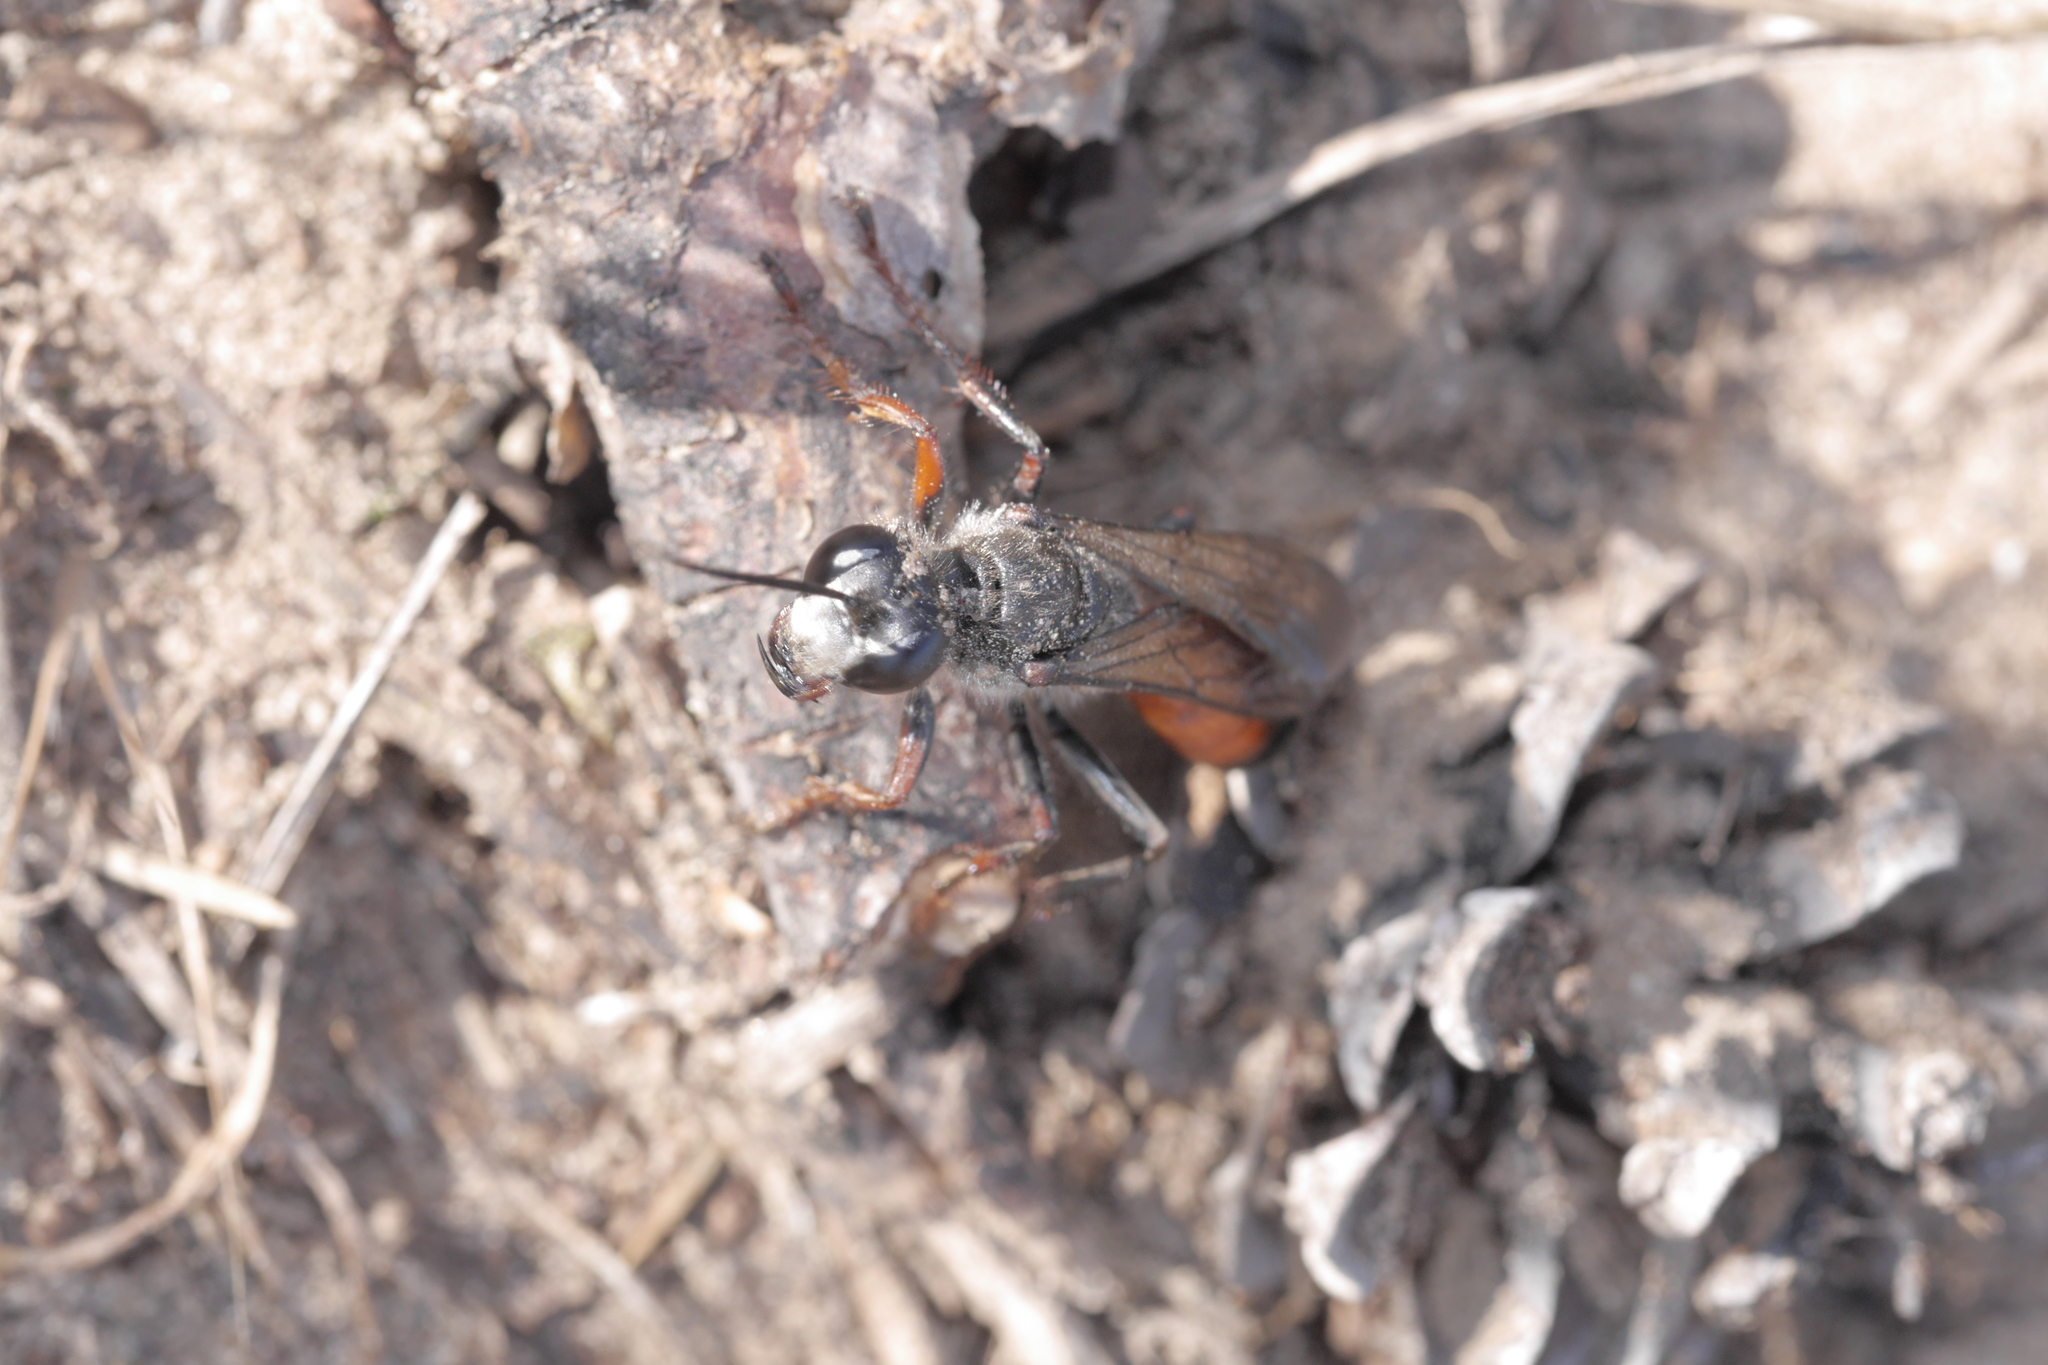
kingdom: Animalia
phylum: Arthropoda
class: Insecta
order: Hymenoptera
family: Sphecidae
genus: Sphex
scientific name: Sphex funerarius
